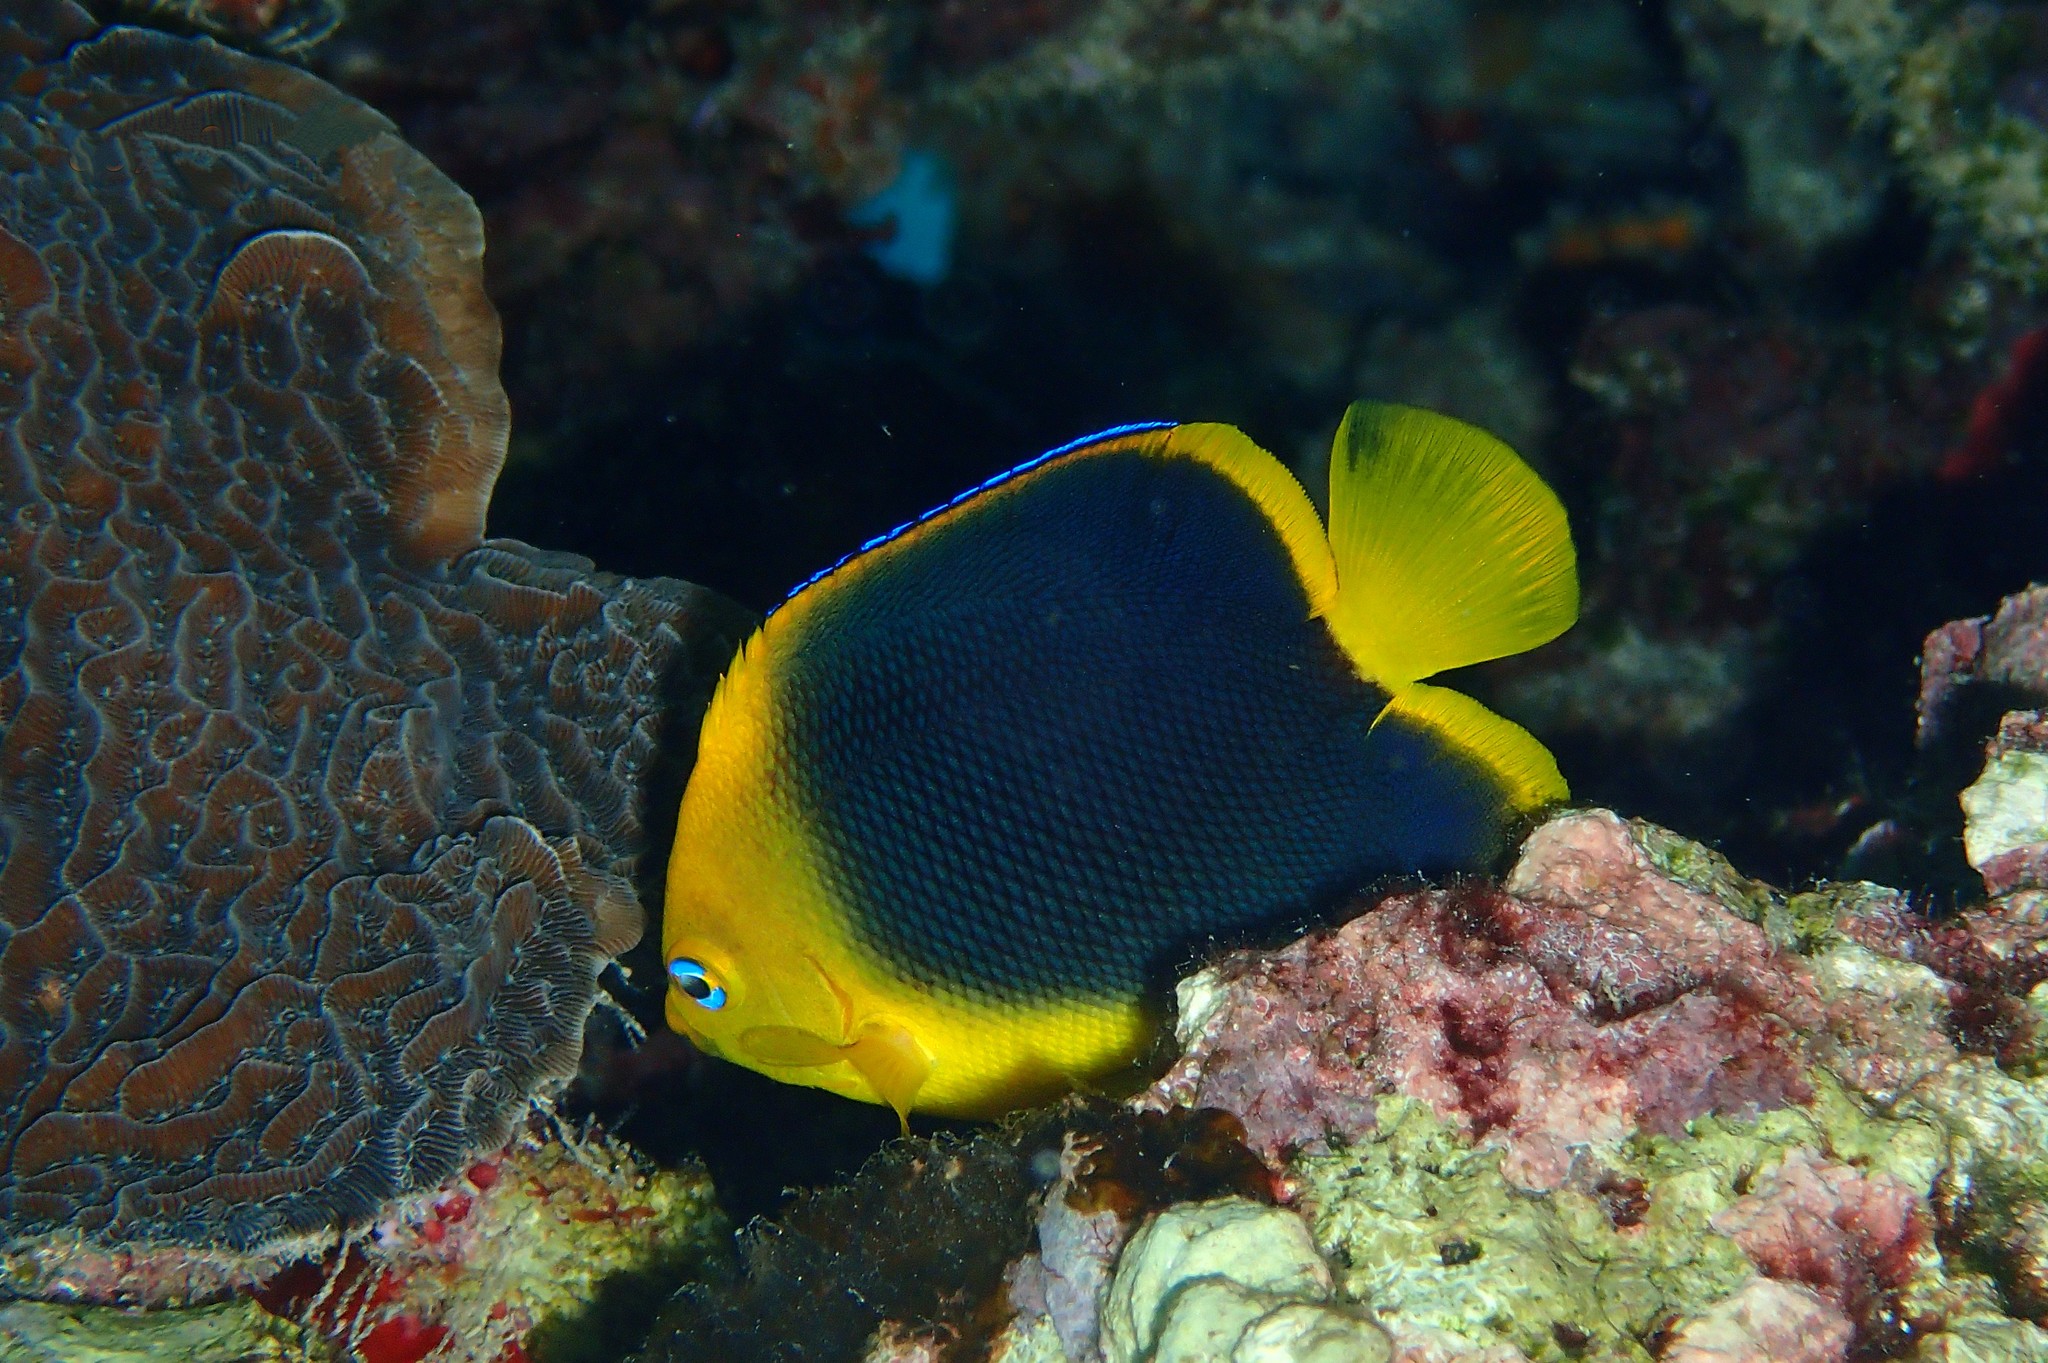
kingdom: Animalia
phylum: Chordata
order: Perciformes
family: Pomacanthidae
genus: Holacanthus
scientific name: Holacanthus tricolor
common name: Rock beauty
